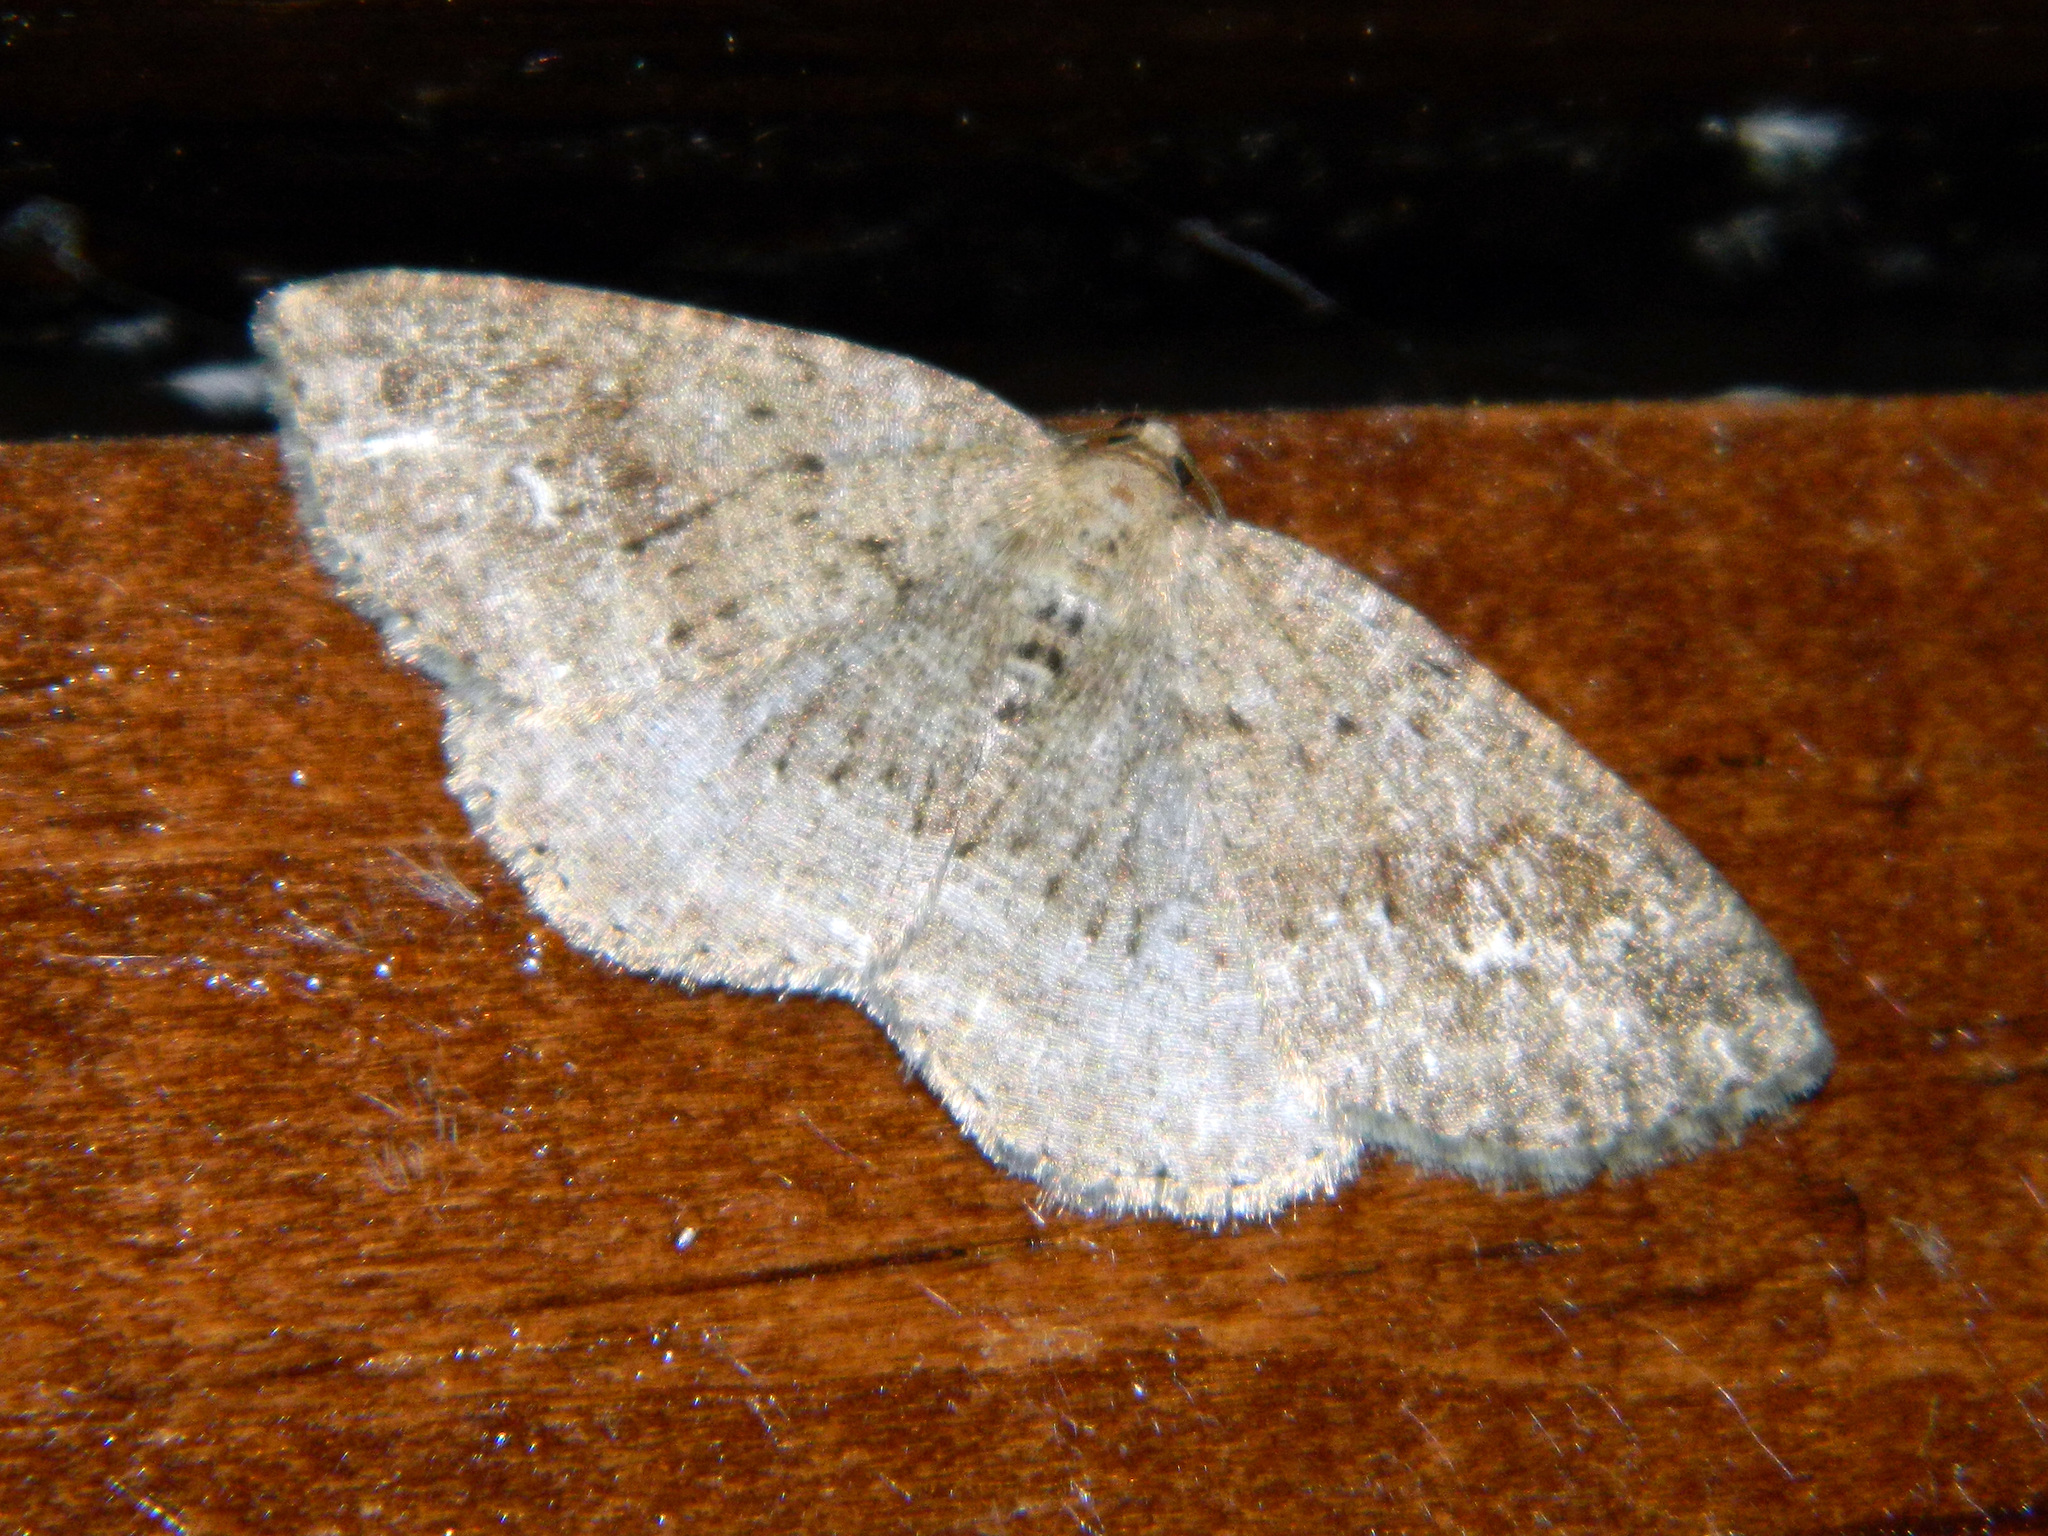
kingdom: Animalia
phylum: Arthropoda
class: Insecta
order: Lepidoptera
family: Geometridae
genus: Homochlodes
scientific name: Homochlodes fritillaria
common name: Pale homochlodes
